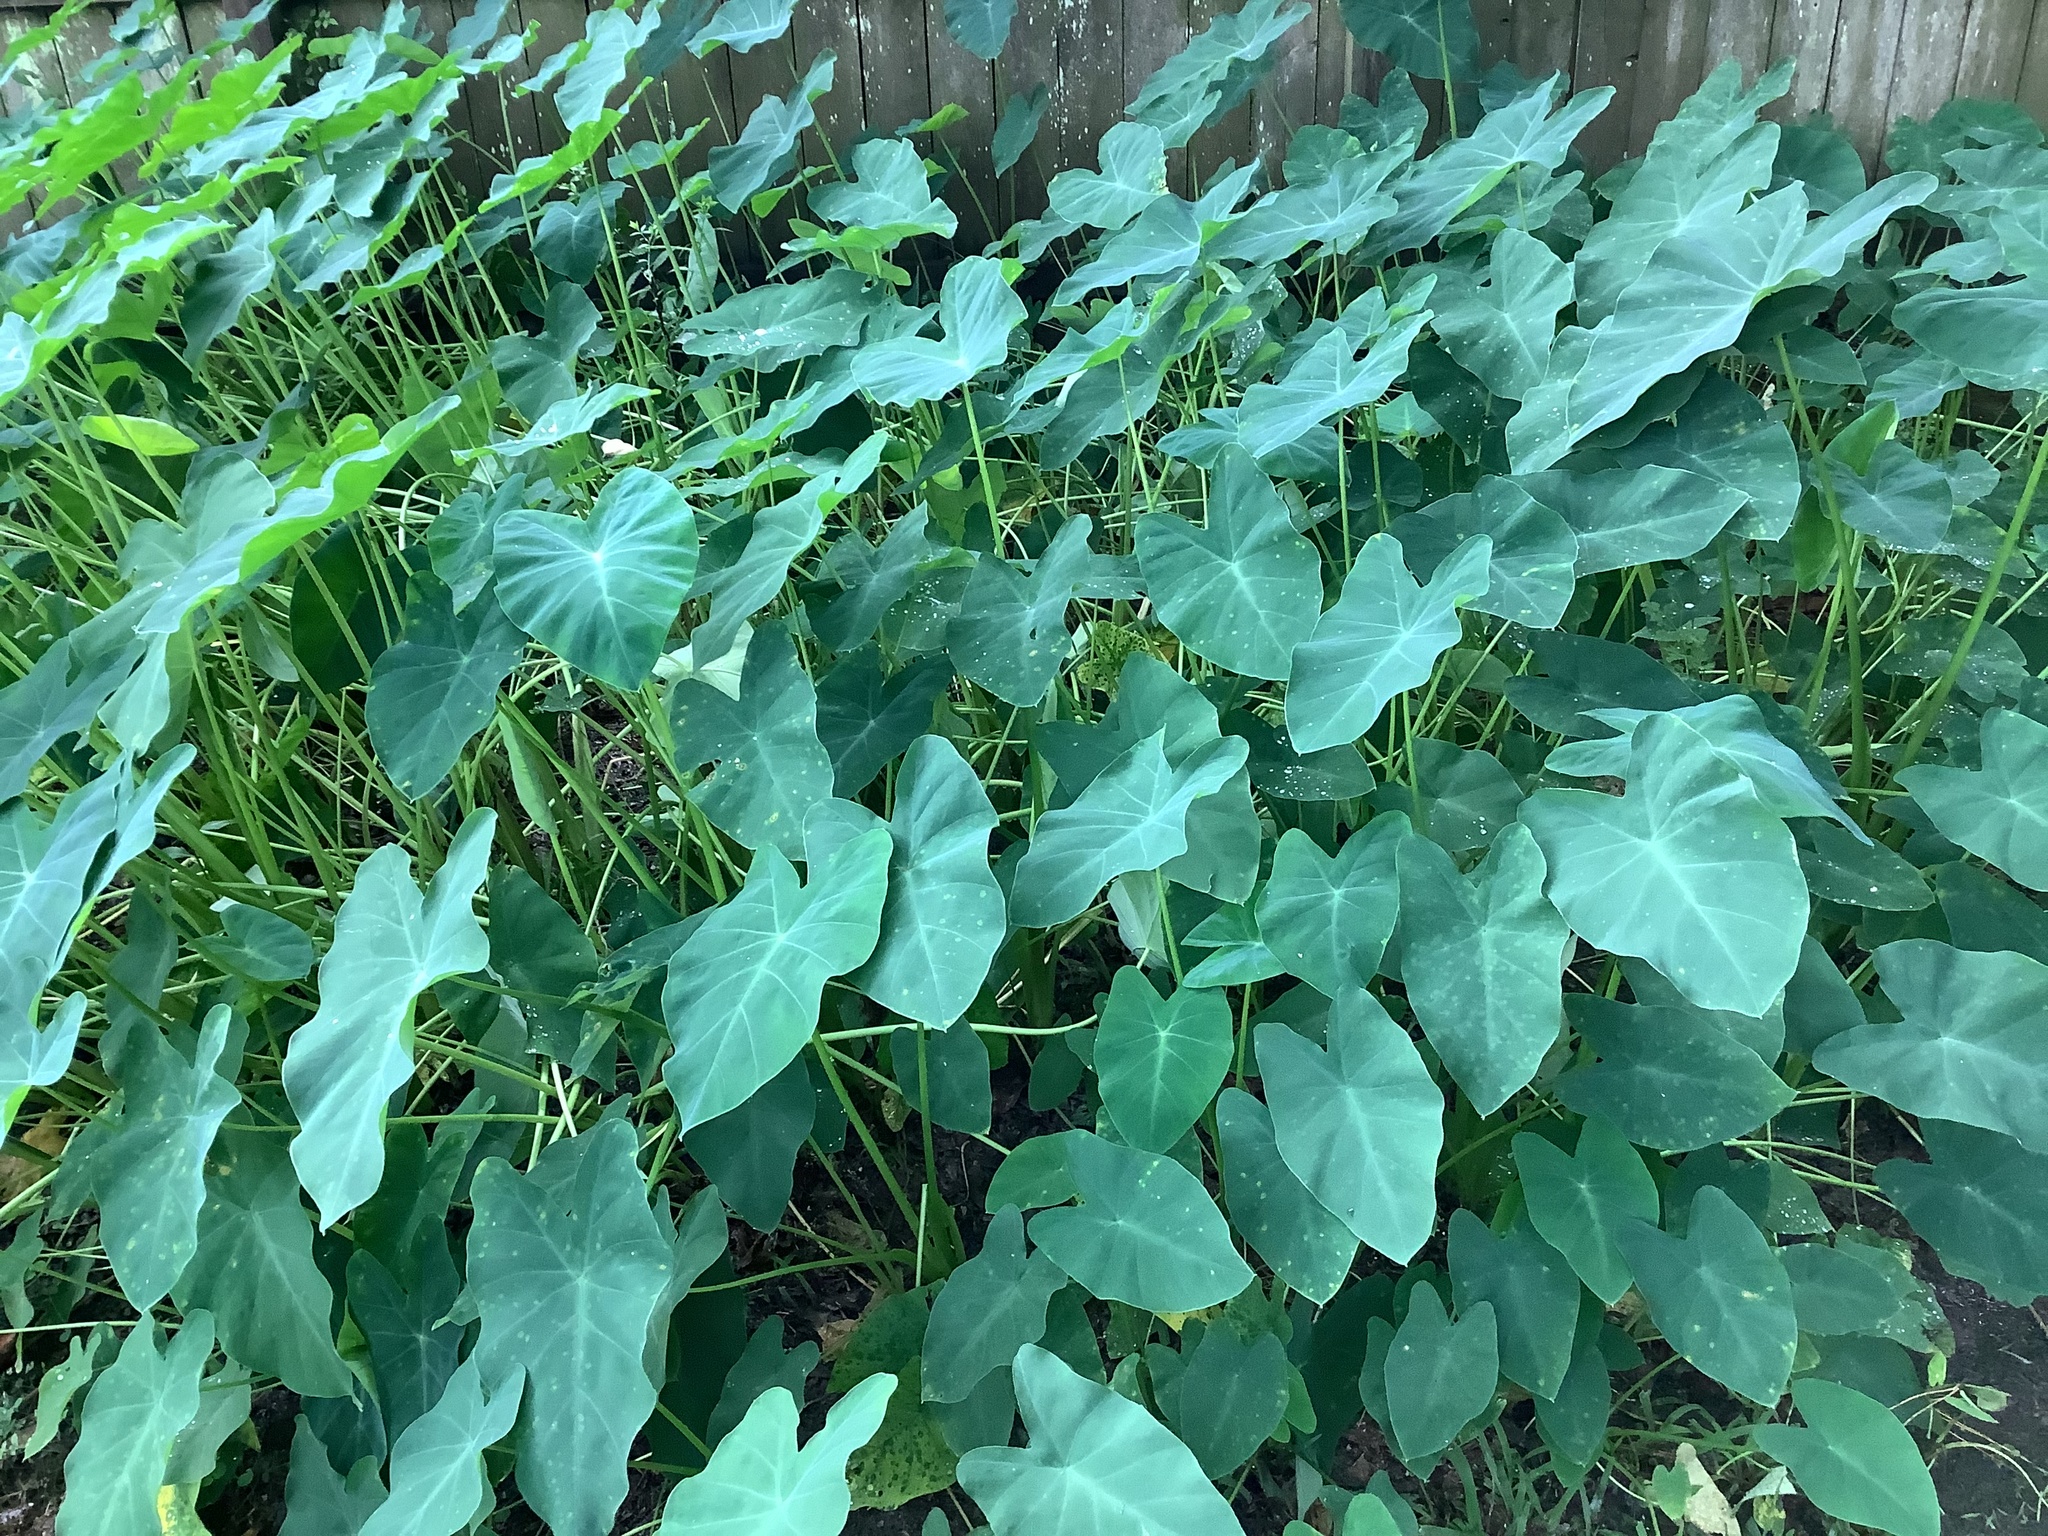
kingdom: Plantae
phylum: Tracheophyta
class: Liliopsida
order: Alismatales
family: Araceae
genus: Colocasia
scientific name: Colocasia esculenta
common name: Taro
